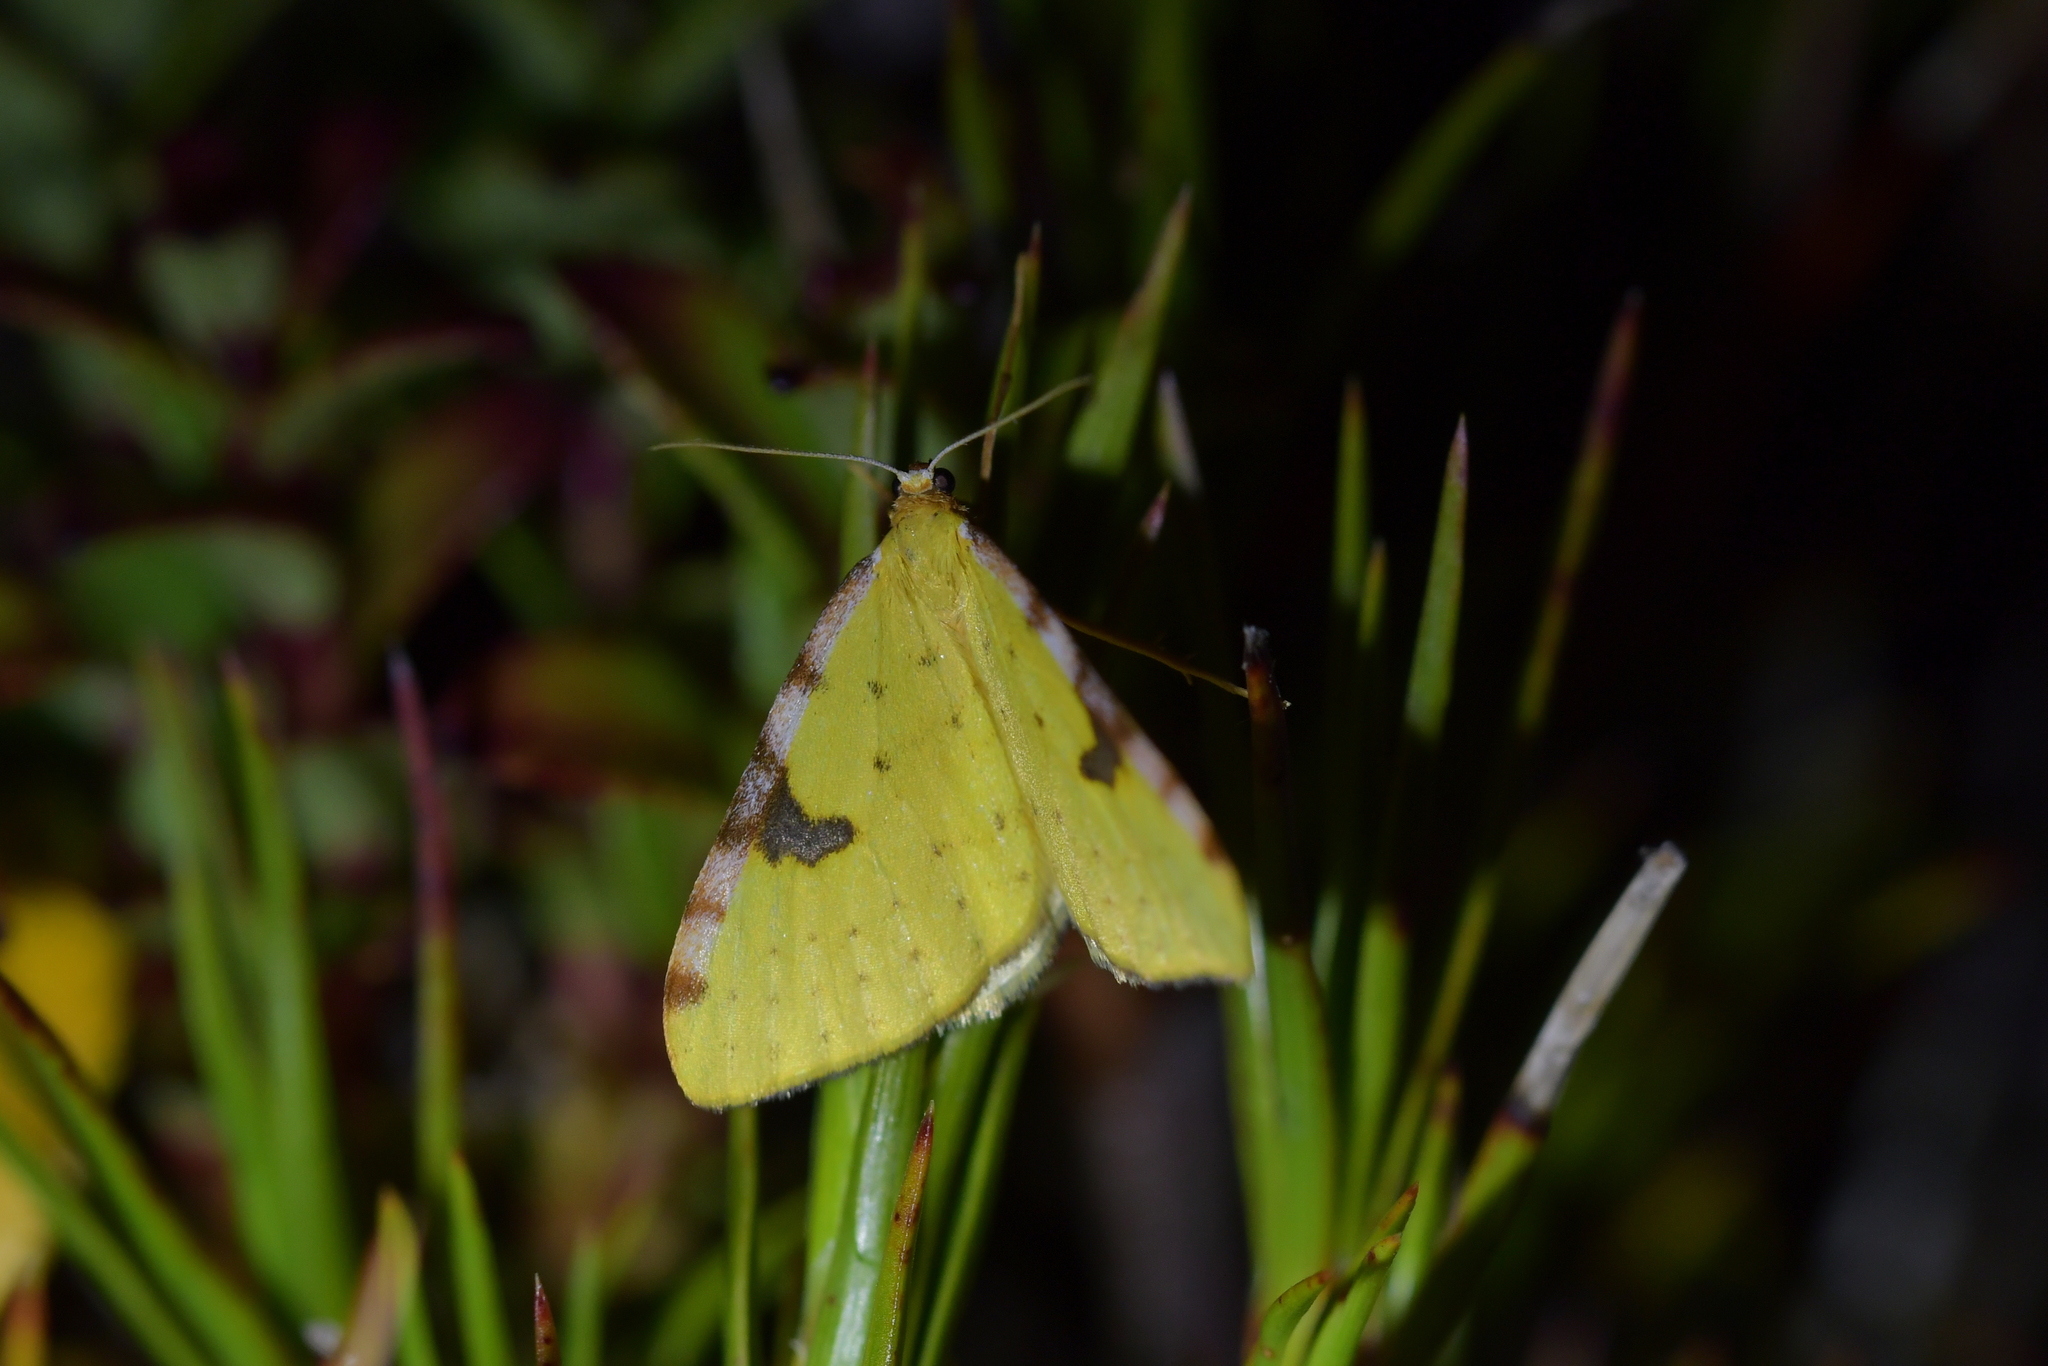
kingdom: Animalia
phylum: Arthropoda
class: Insecta
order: Lepidoptera
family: Geometridae
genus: Epiphryne
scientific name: Epiphryne xanthaspis
